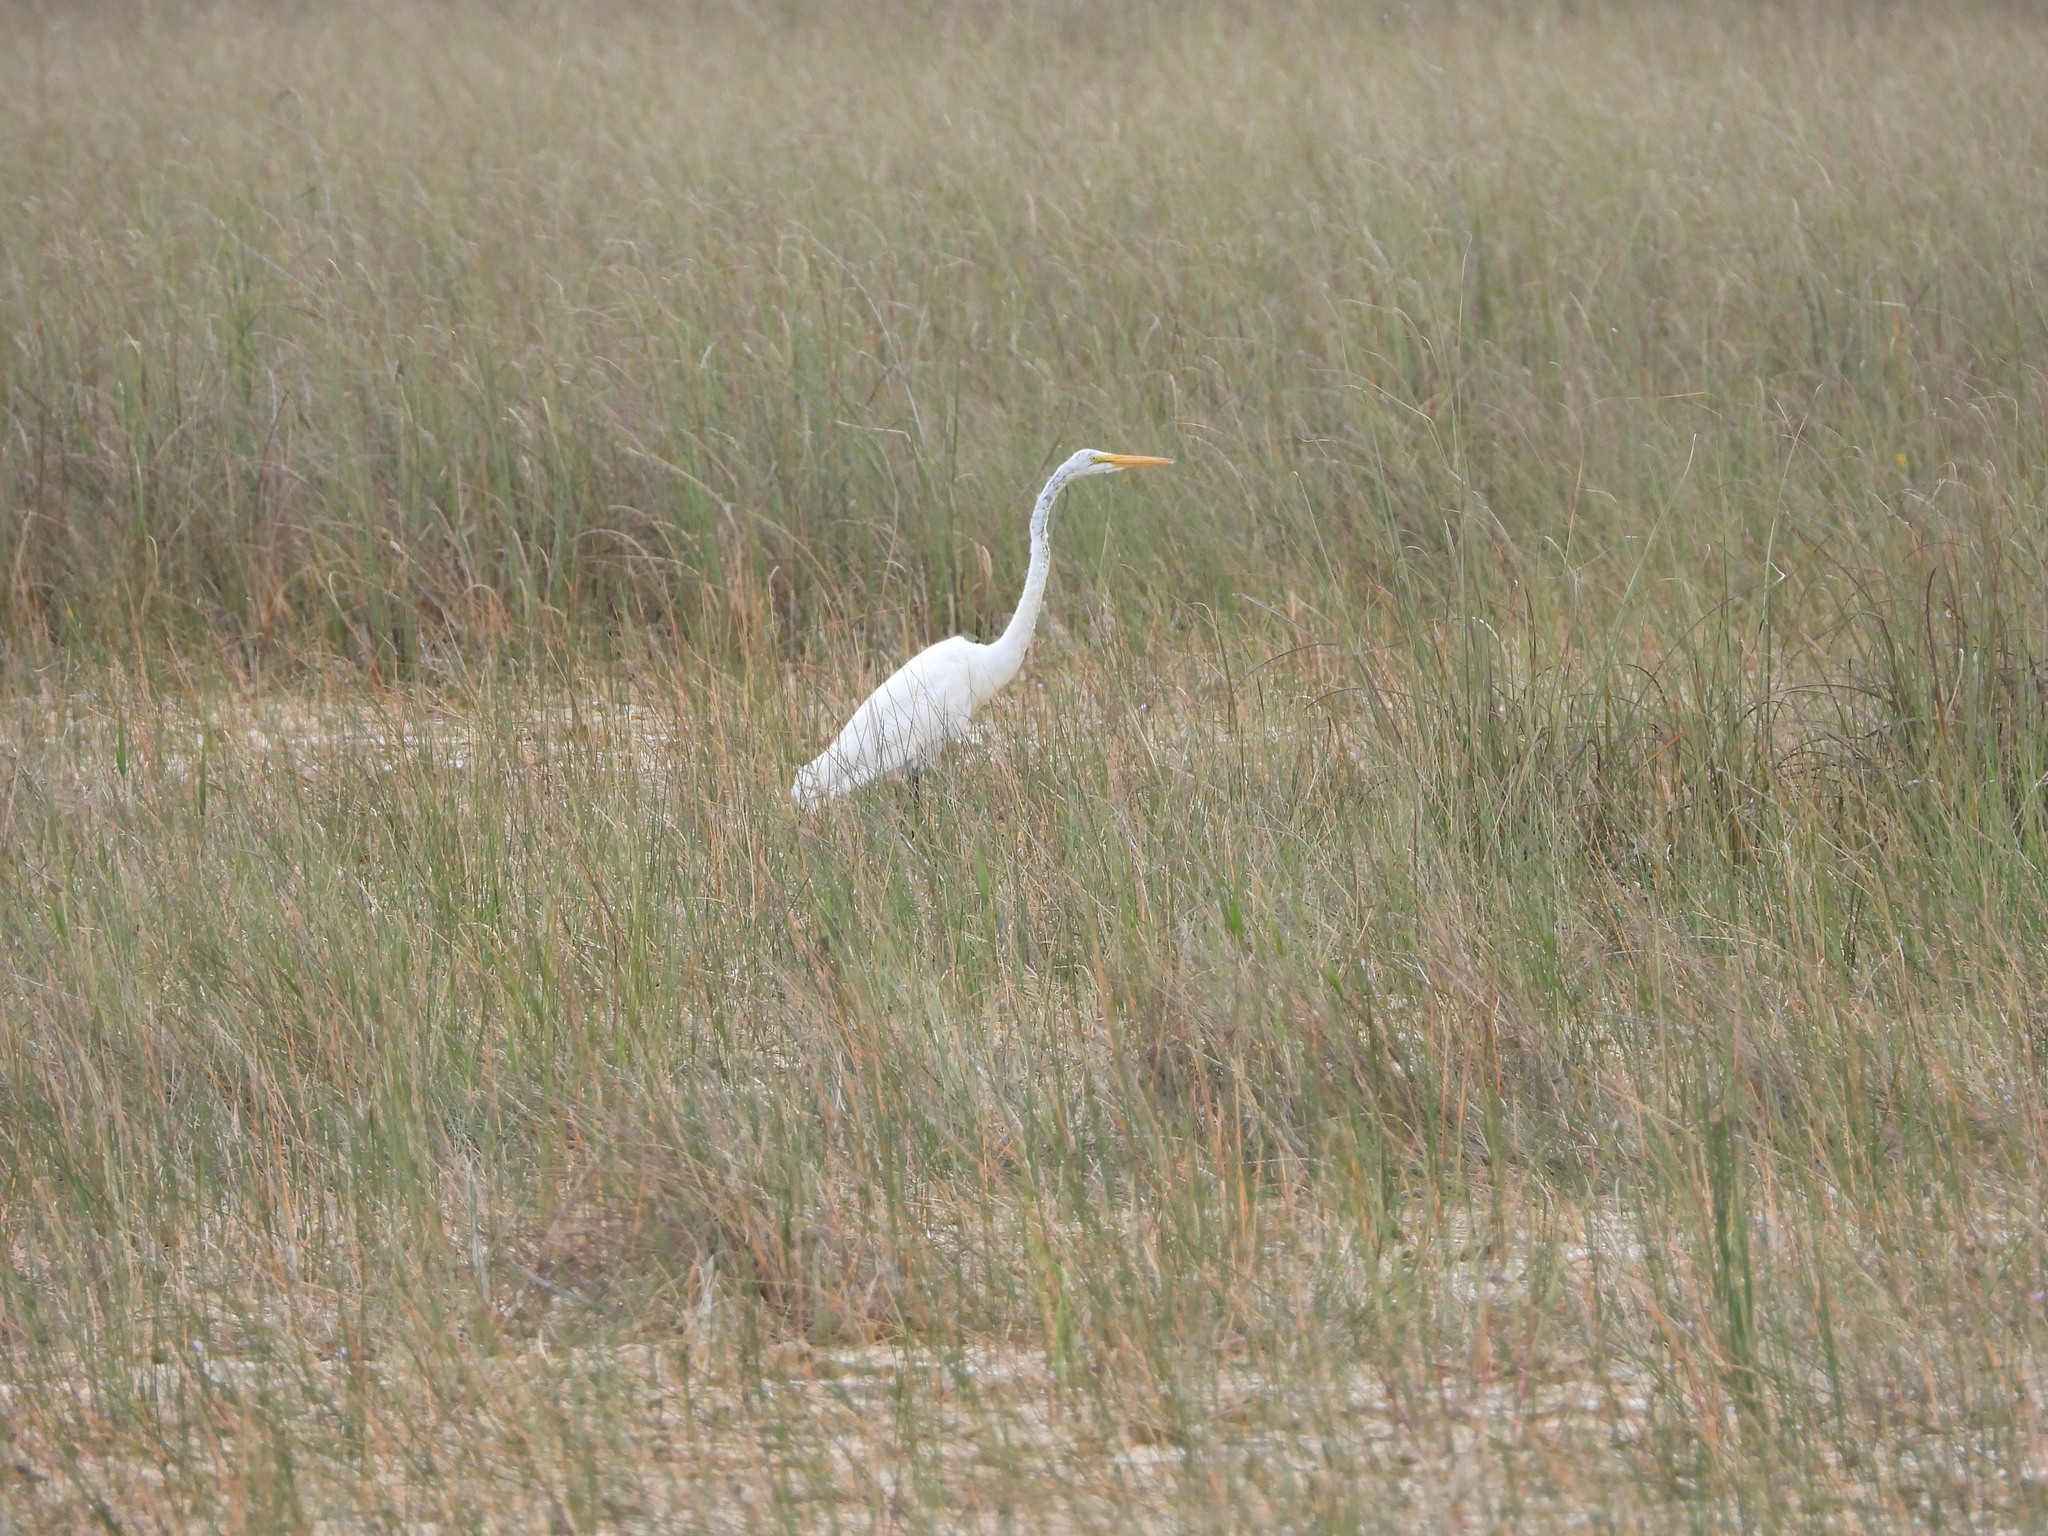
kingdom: Animalia
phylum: Chordata
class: Aves
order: Pelecaniformes
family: Ardeidae
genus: Ardea
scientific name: Ardea alba
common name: Great egret
